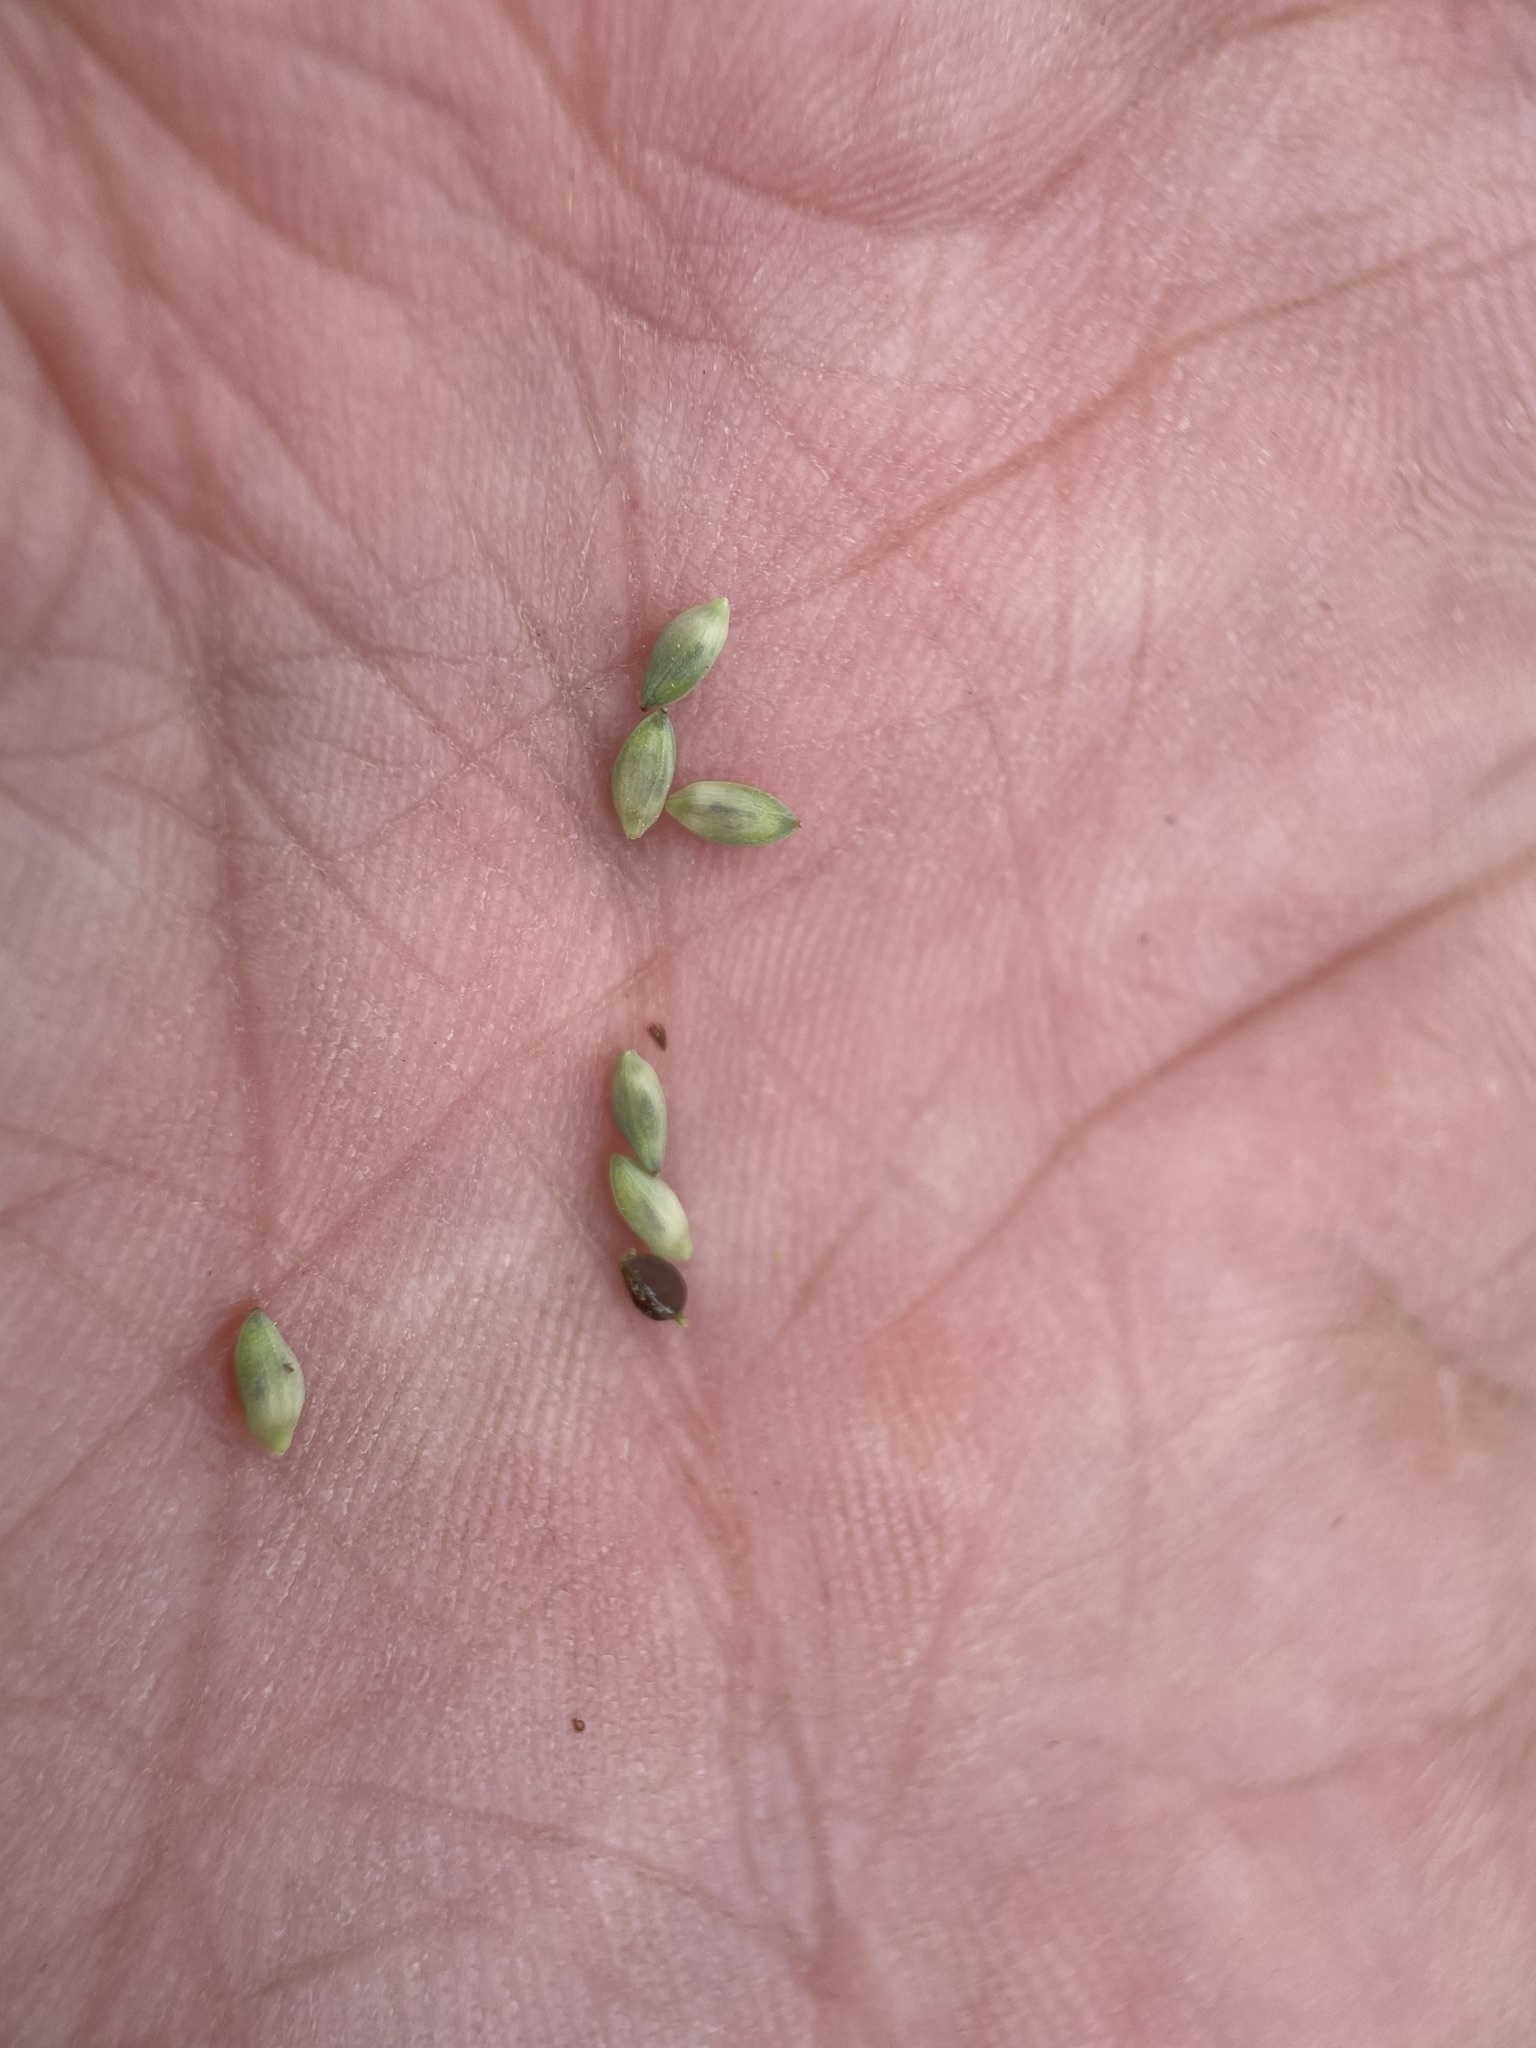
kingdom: Plantae
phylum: Tracheophyta
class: Liliopsida
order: Poales
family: Cyperaceae
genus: Carex
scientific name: Carex buxbaumii
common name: Club sedge
